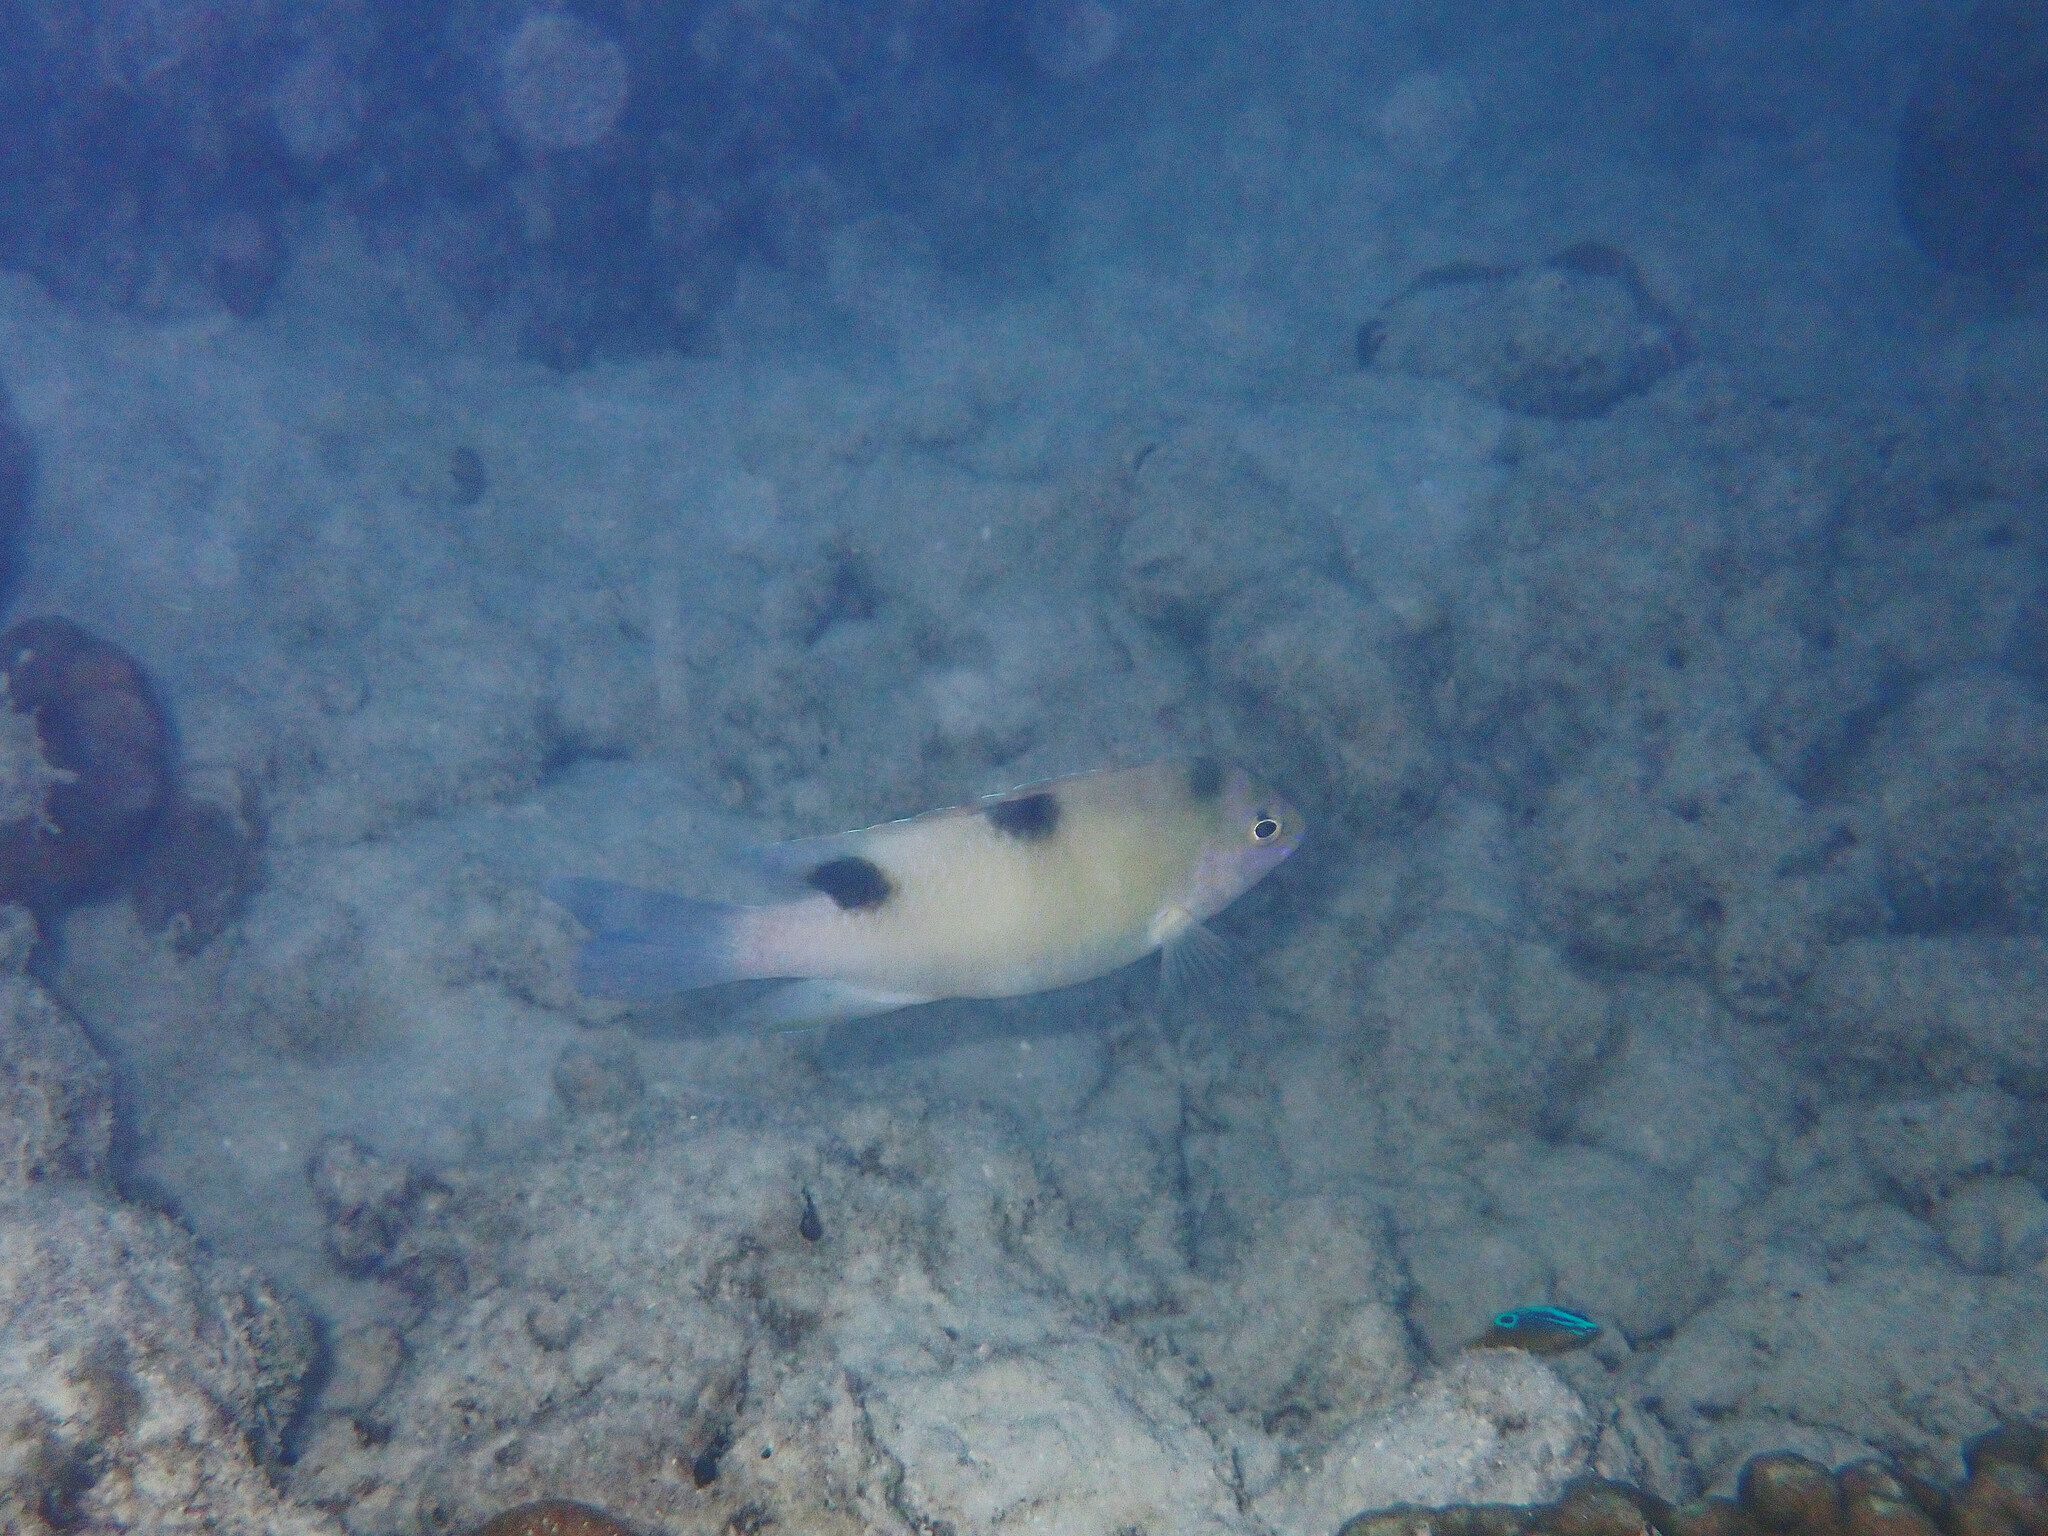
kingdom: Animalia
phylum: Chordata
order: Perciformes
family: Pomacentridae
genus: Dischistodus
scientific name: Dischistodus perspicillatus
